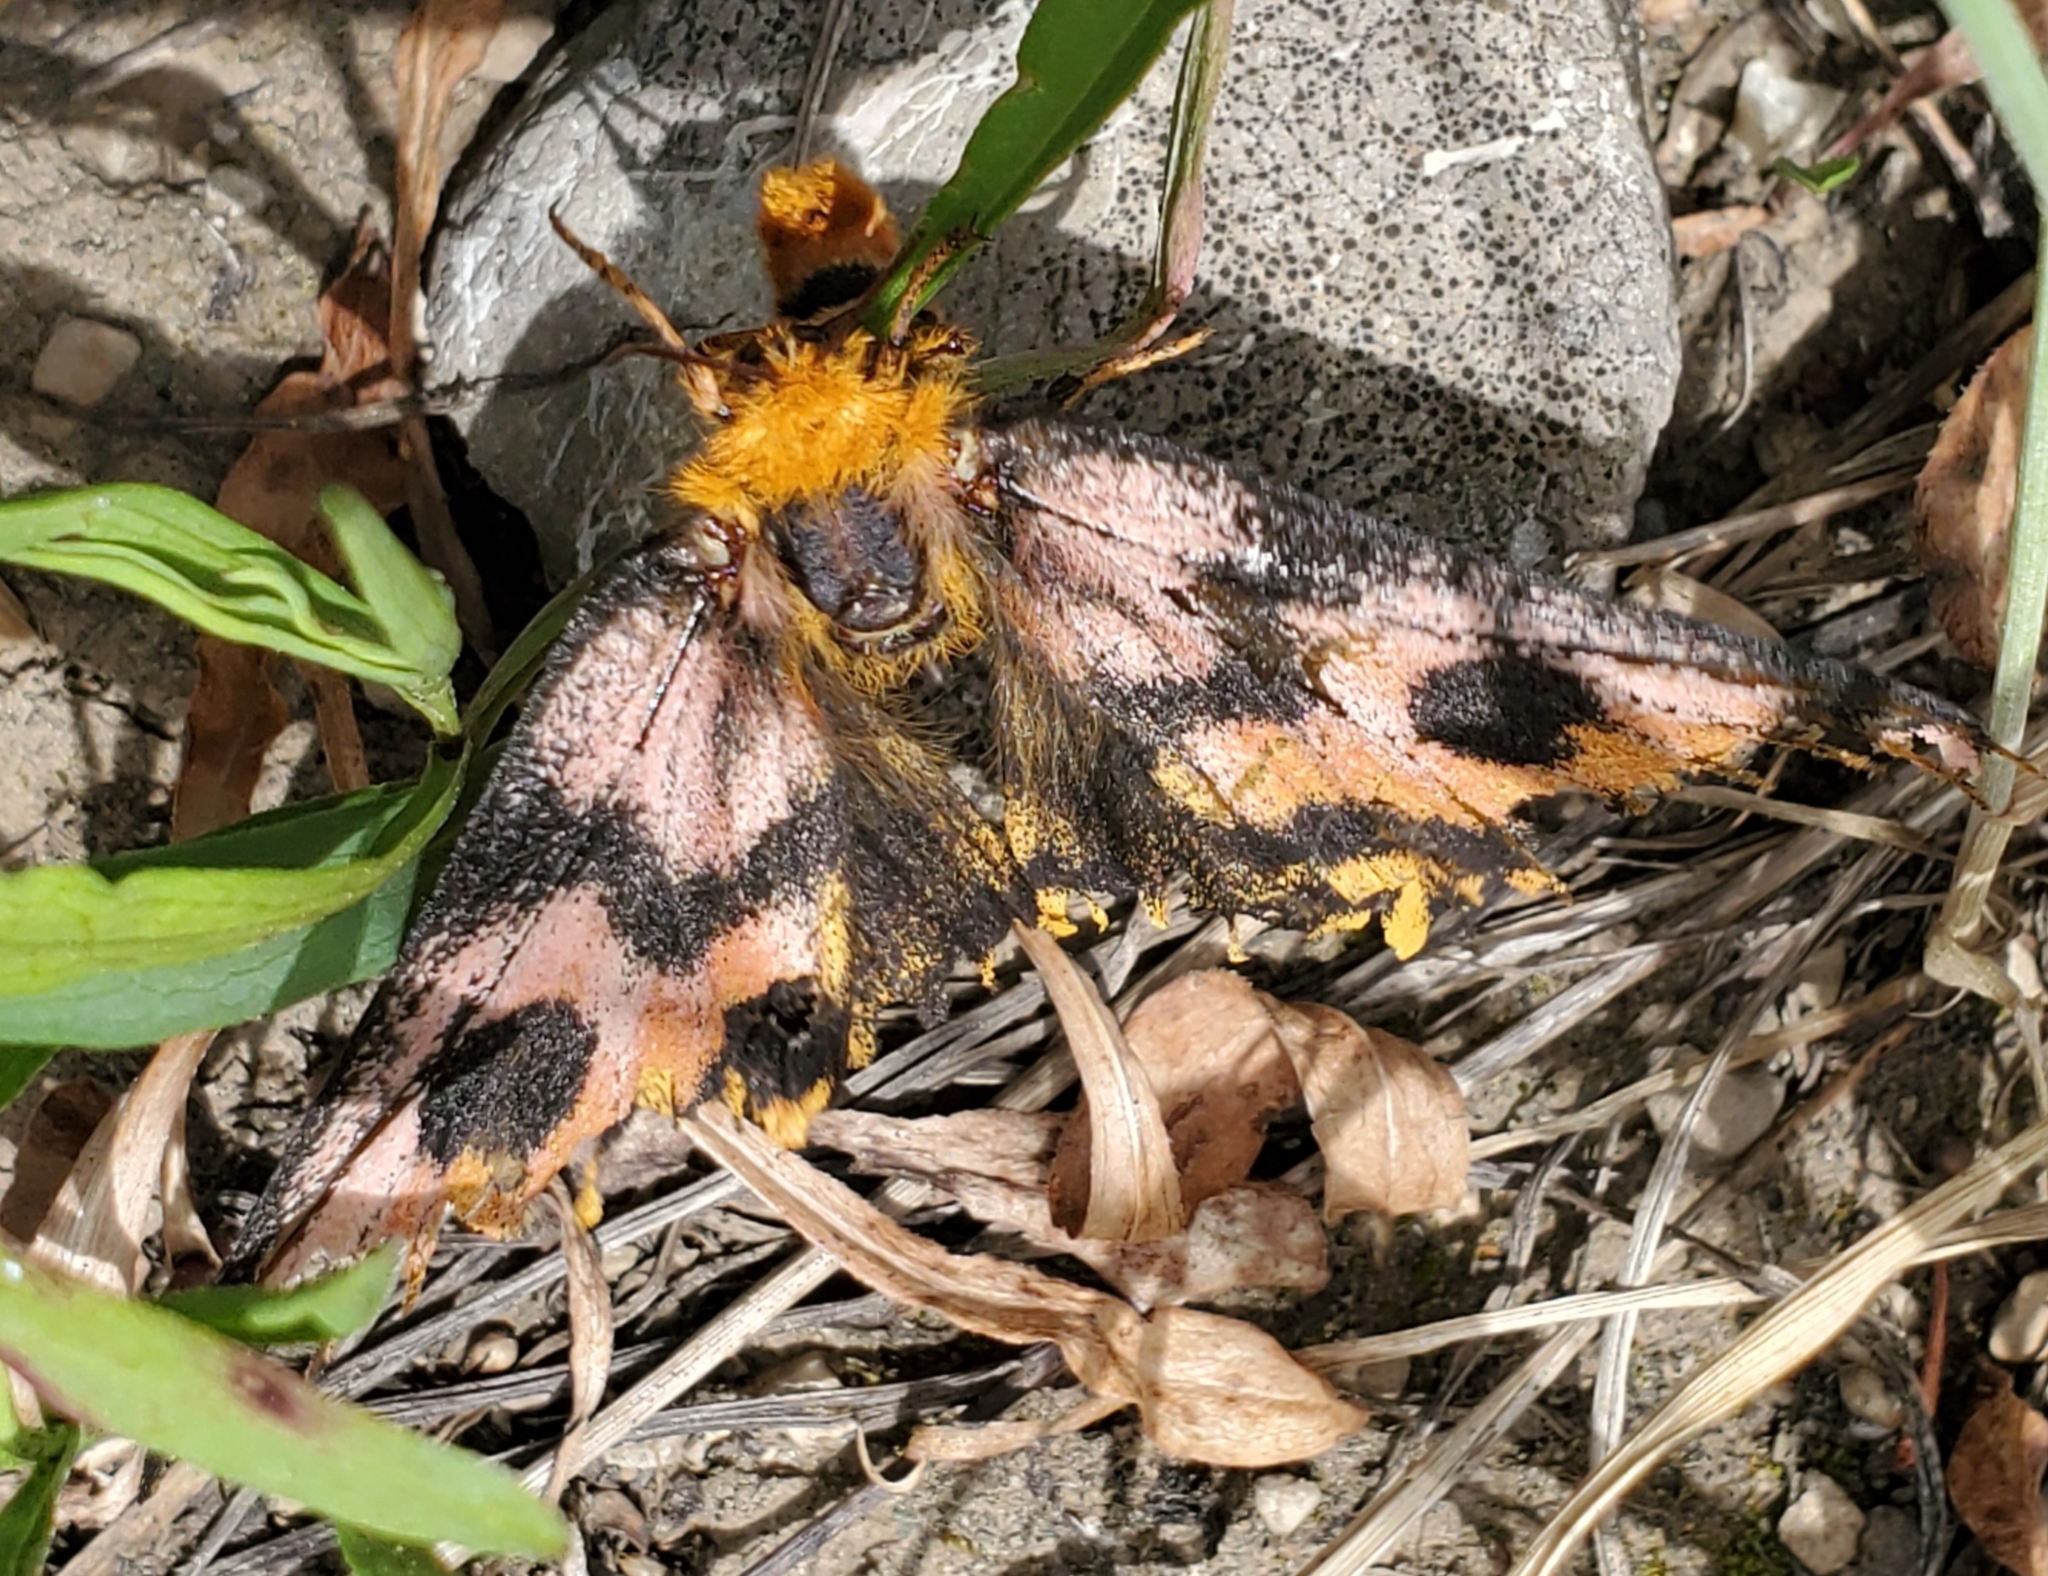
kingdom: Animalia
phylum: Arthropoda
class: Insecta
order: Lepidoptera
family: Saturniidae
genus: Hemileuca
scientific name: Hemileuca eglanterina
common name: Western sheepmoth
